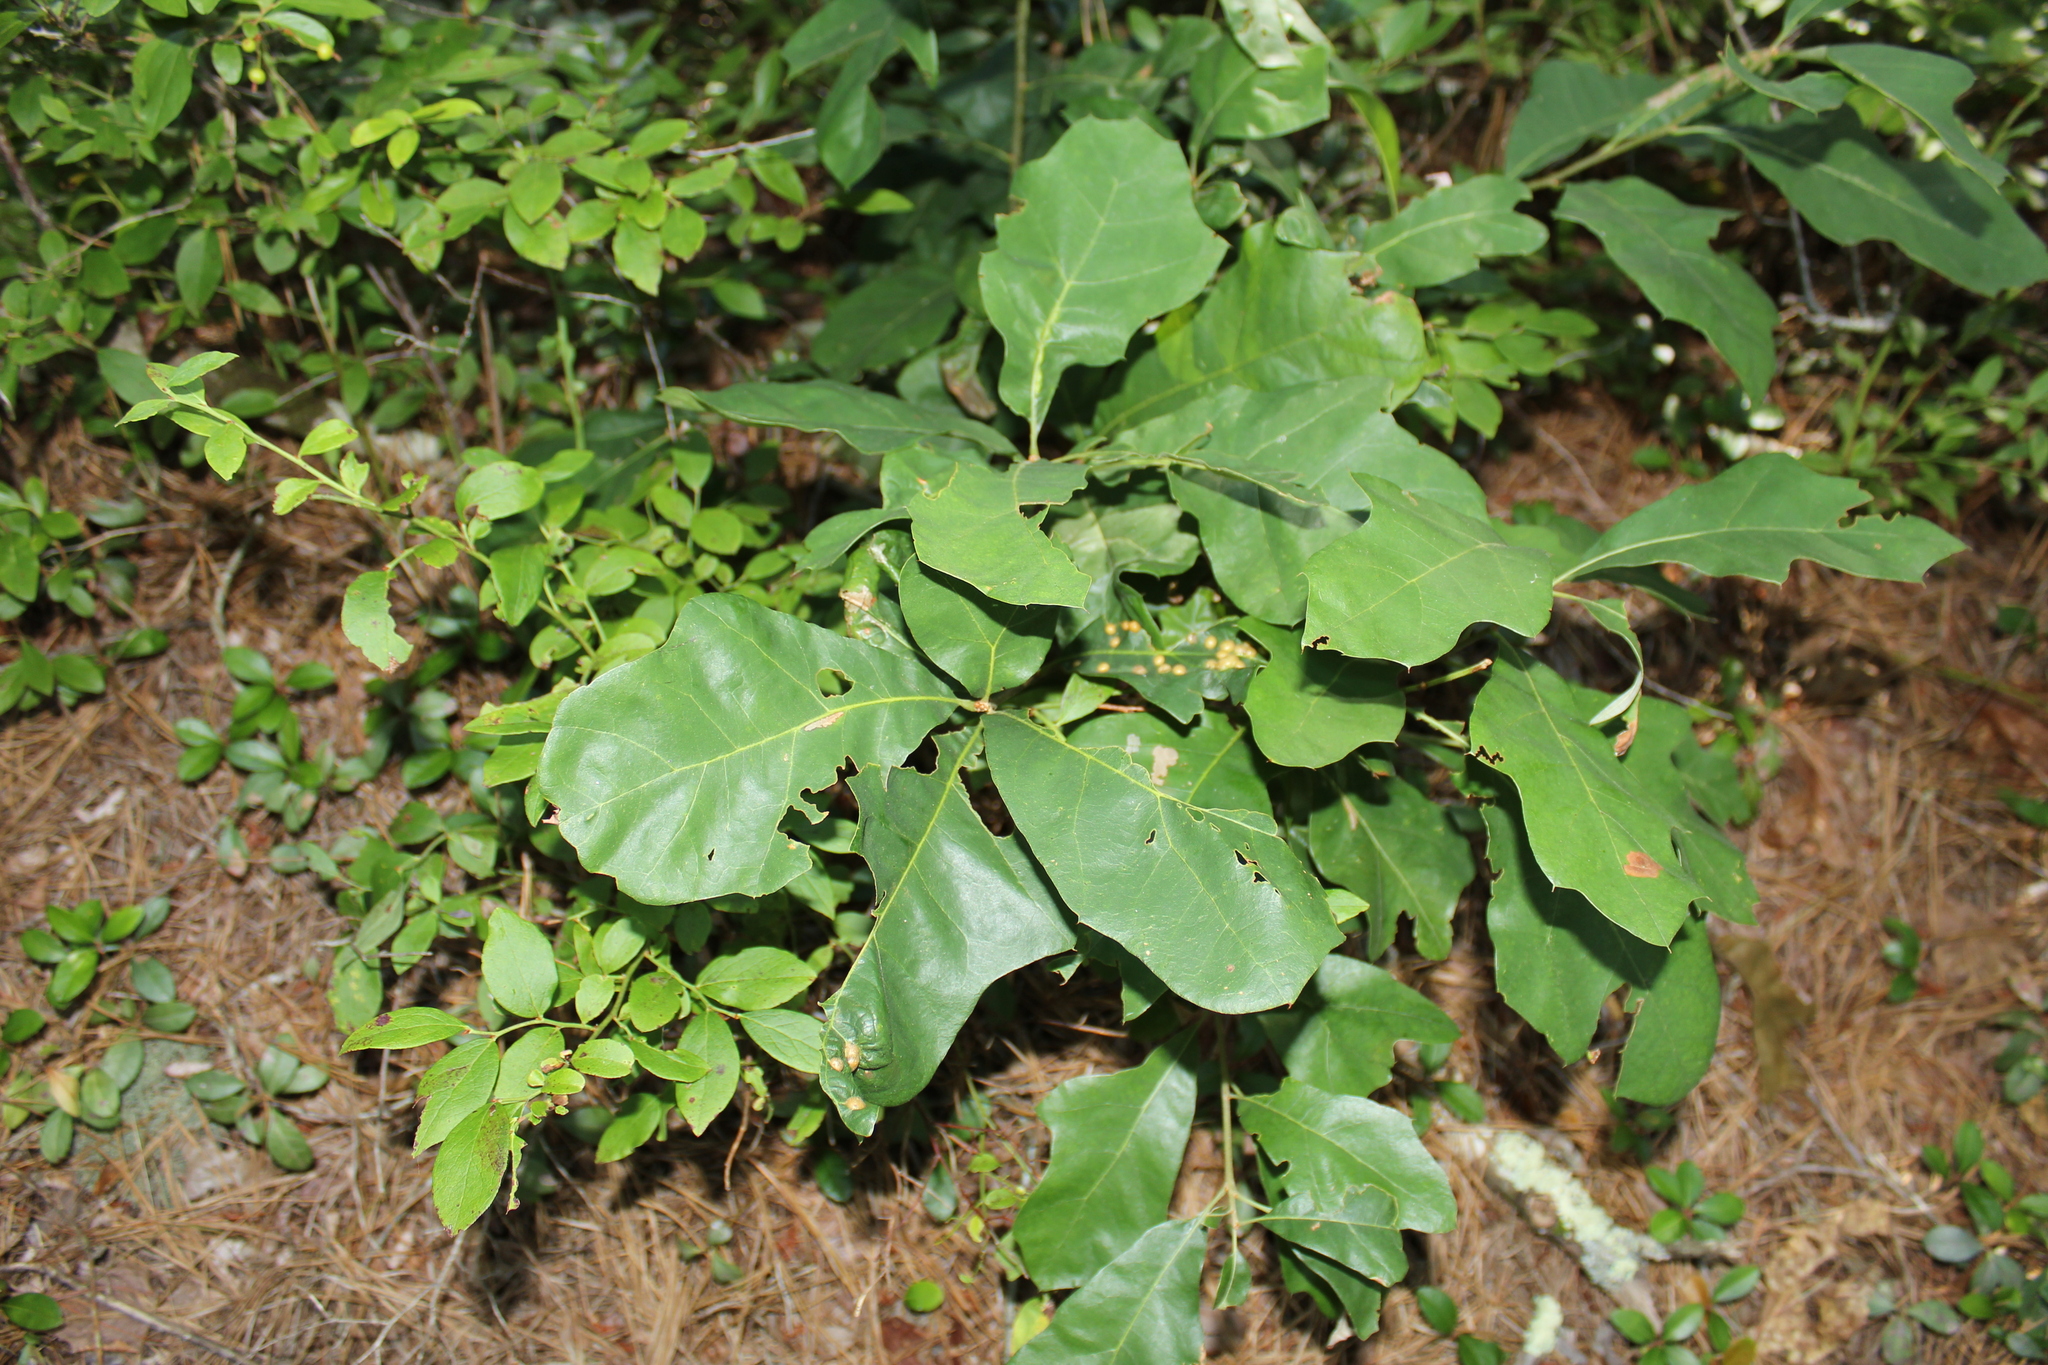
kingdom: Animalia
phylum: Arthropoda
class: Insecta
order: Diptera
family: Cecidomyiidae
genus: Polystepha
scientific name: Polystepha pilulae
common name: Oak leaf gall midge
